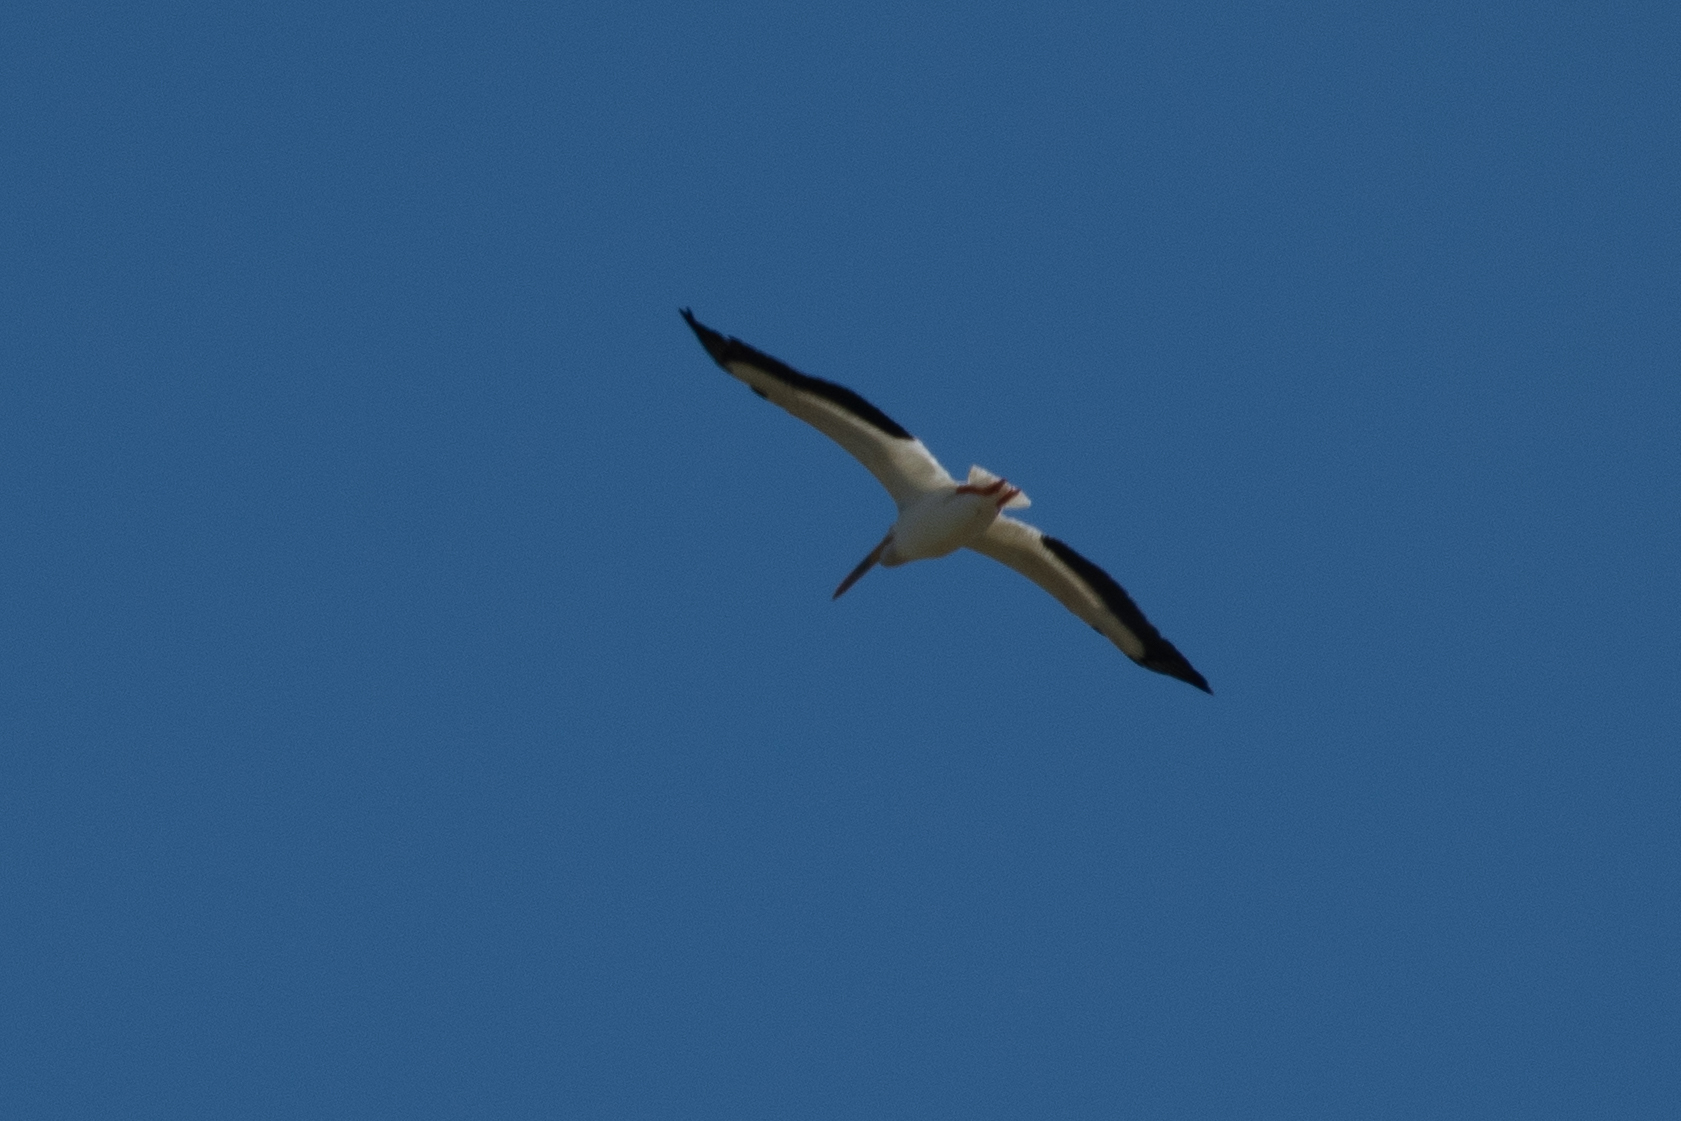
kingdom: Animalia
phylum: Chordata
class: Aves
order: Pelecaniformes
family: Pelecanidae
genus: Pelecanus
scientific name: Pelecanus erythrorhynchos
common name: American white pelican
